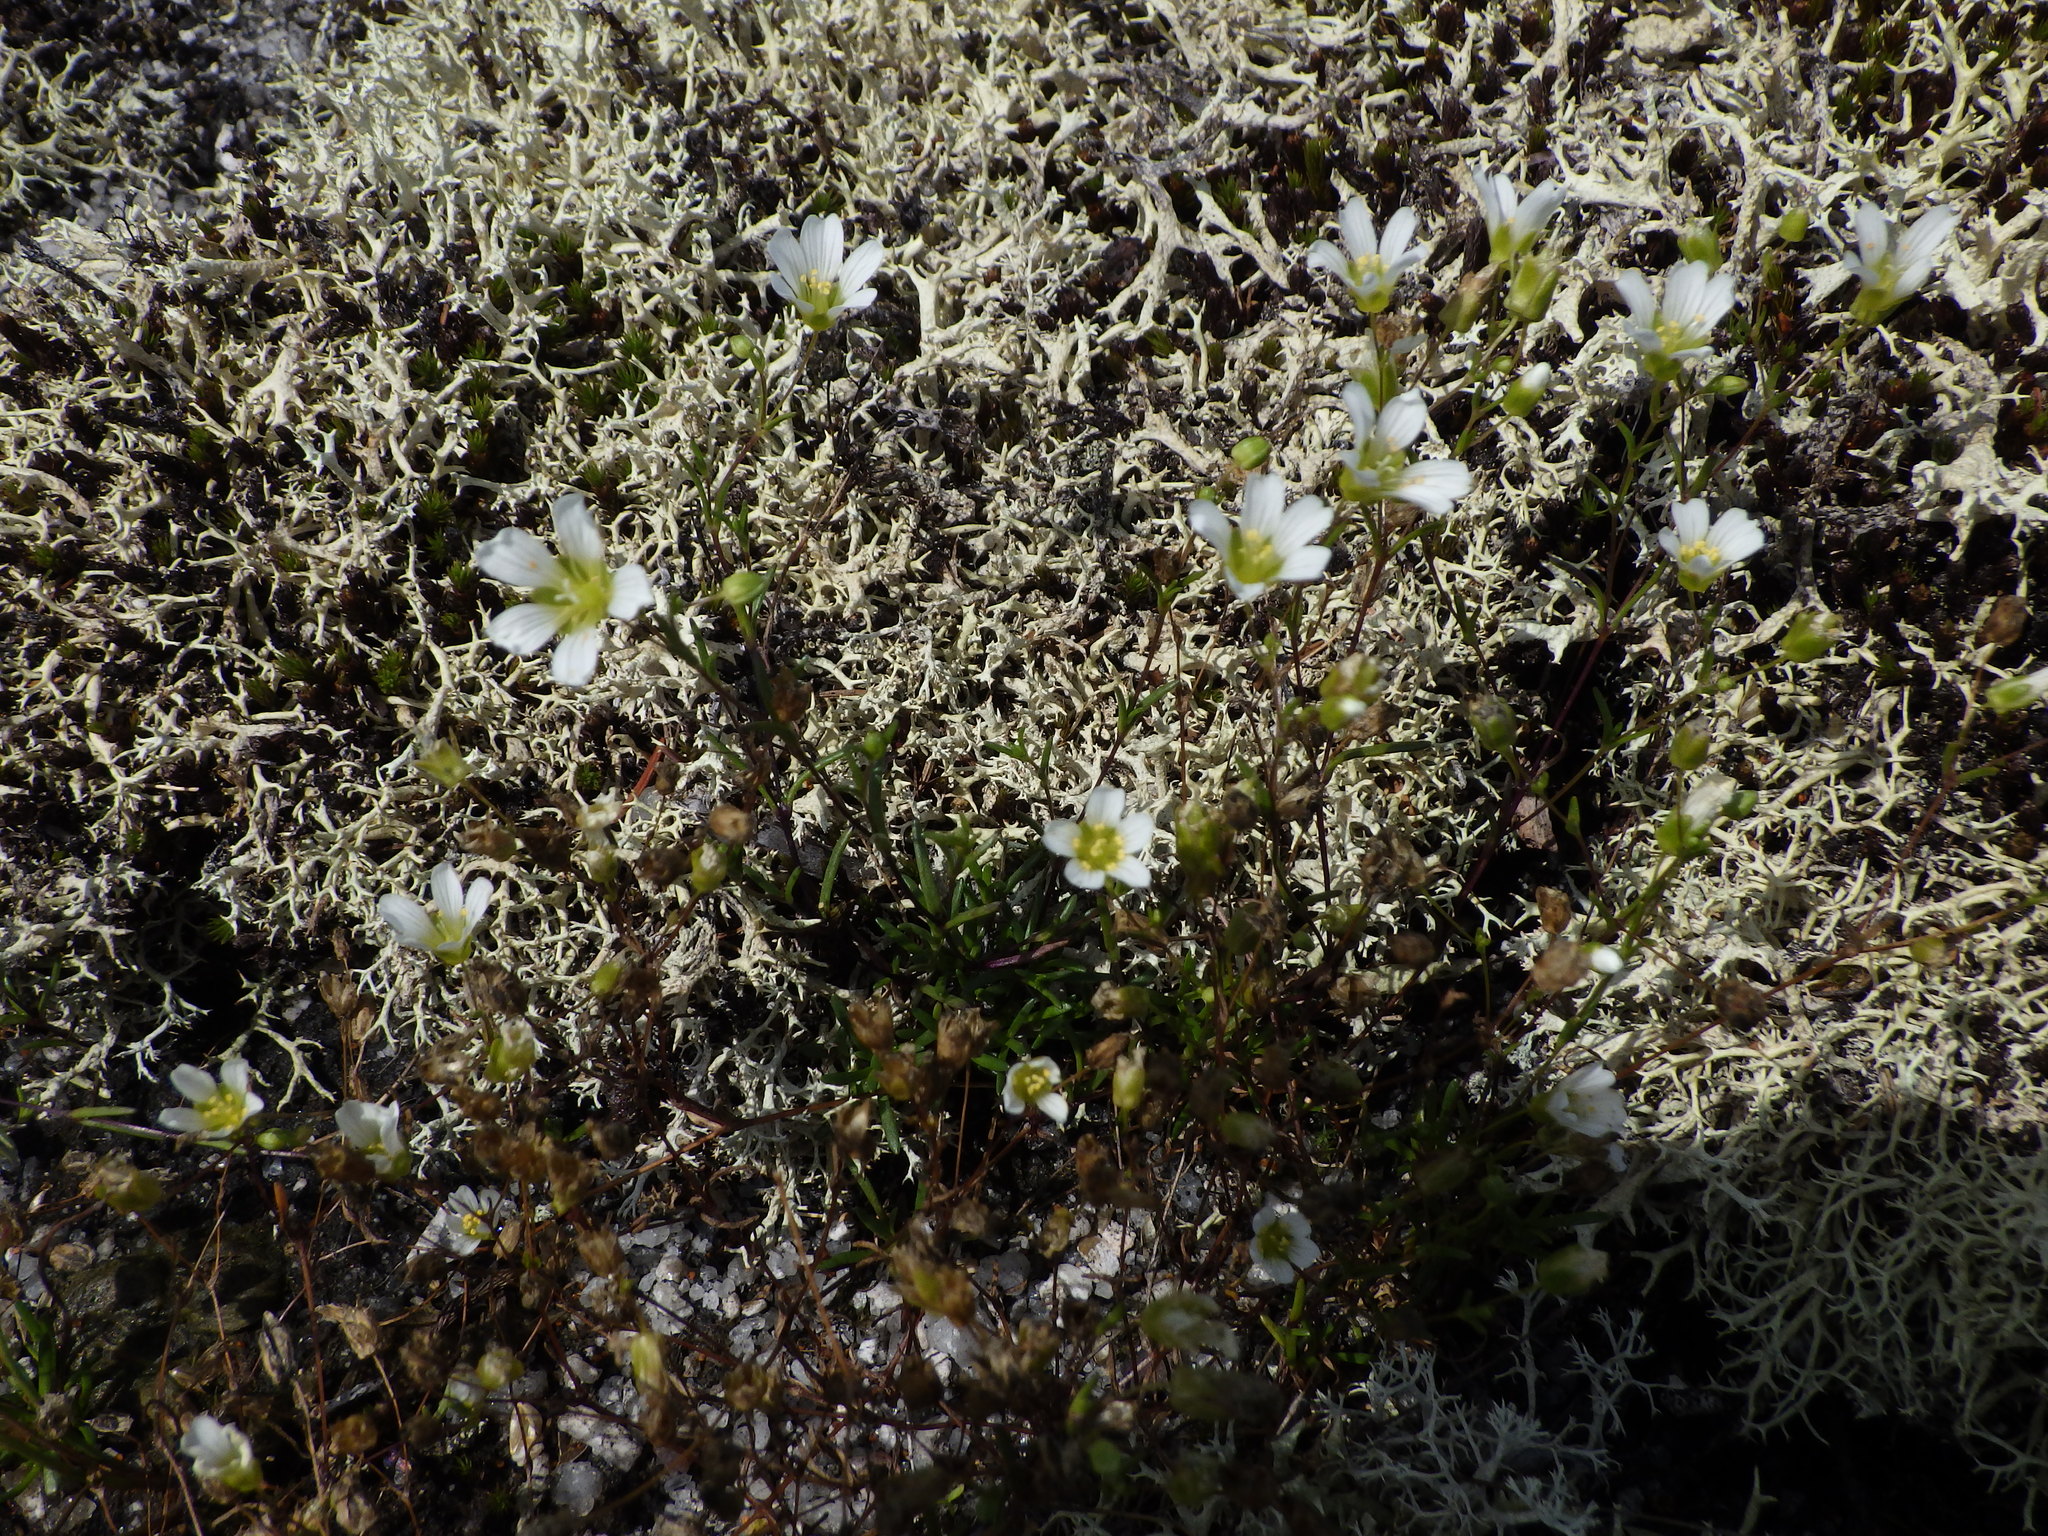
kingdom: Plantae
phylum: Tracheophyta
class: Magnoliopsida
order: Caryophyllales
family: Caryophyllaceae
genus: Geocarpon
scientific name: Geocarpon groenlandicum
